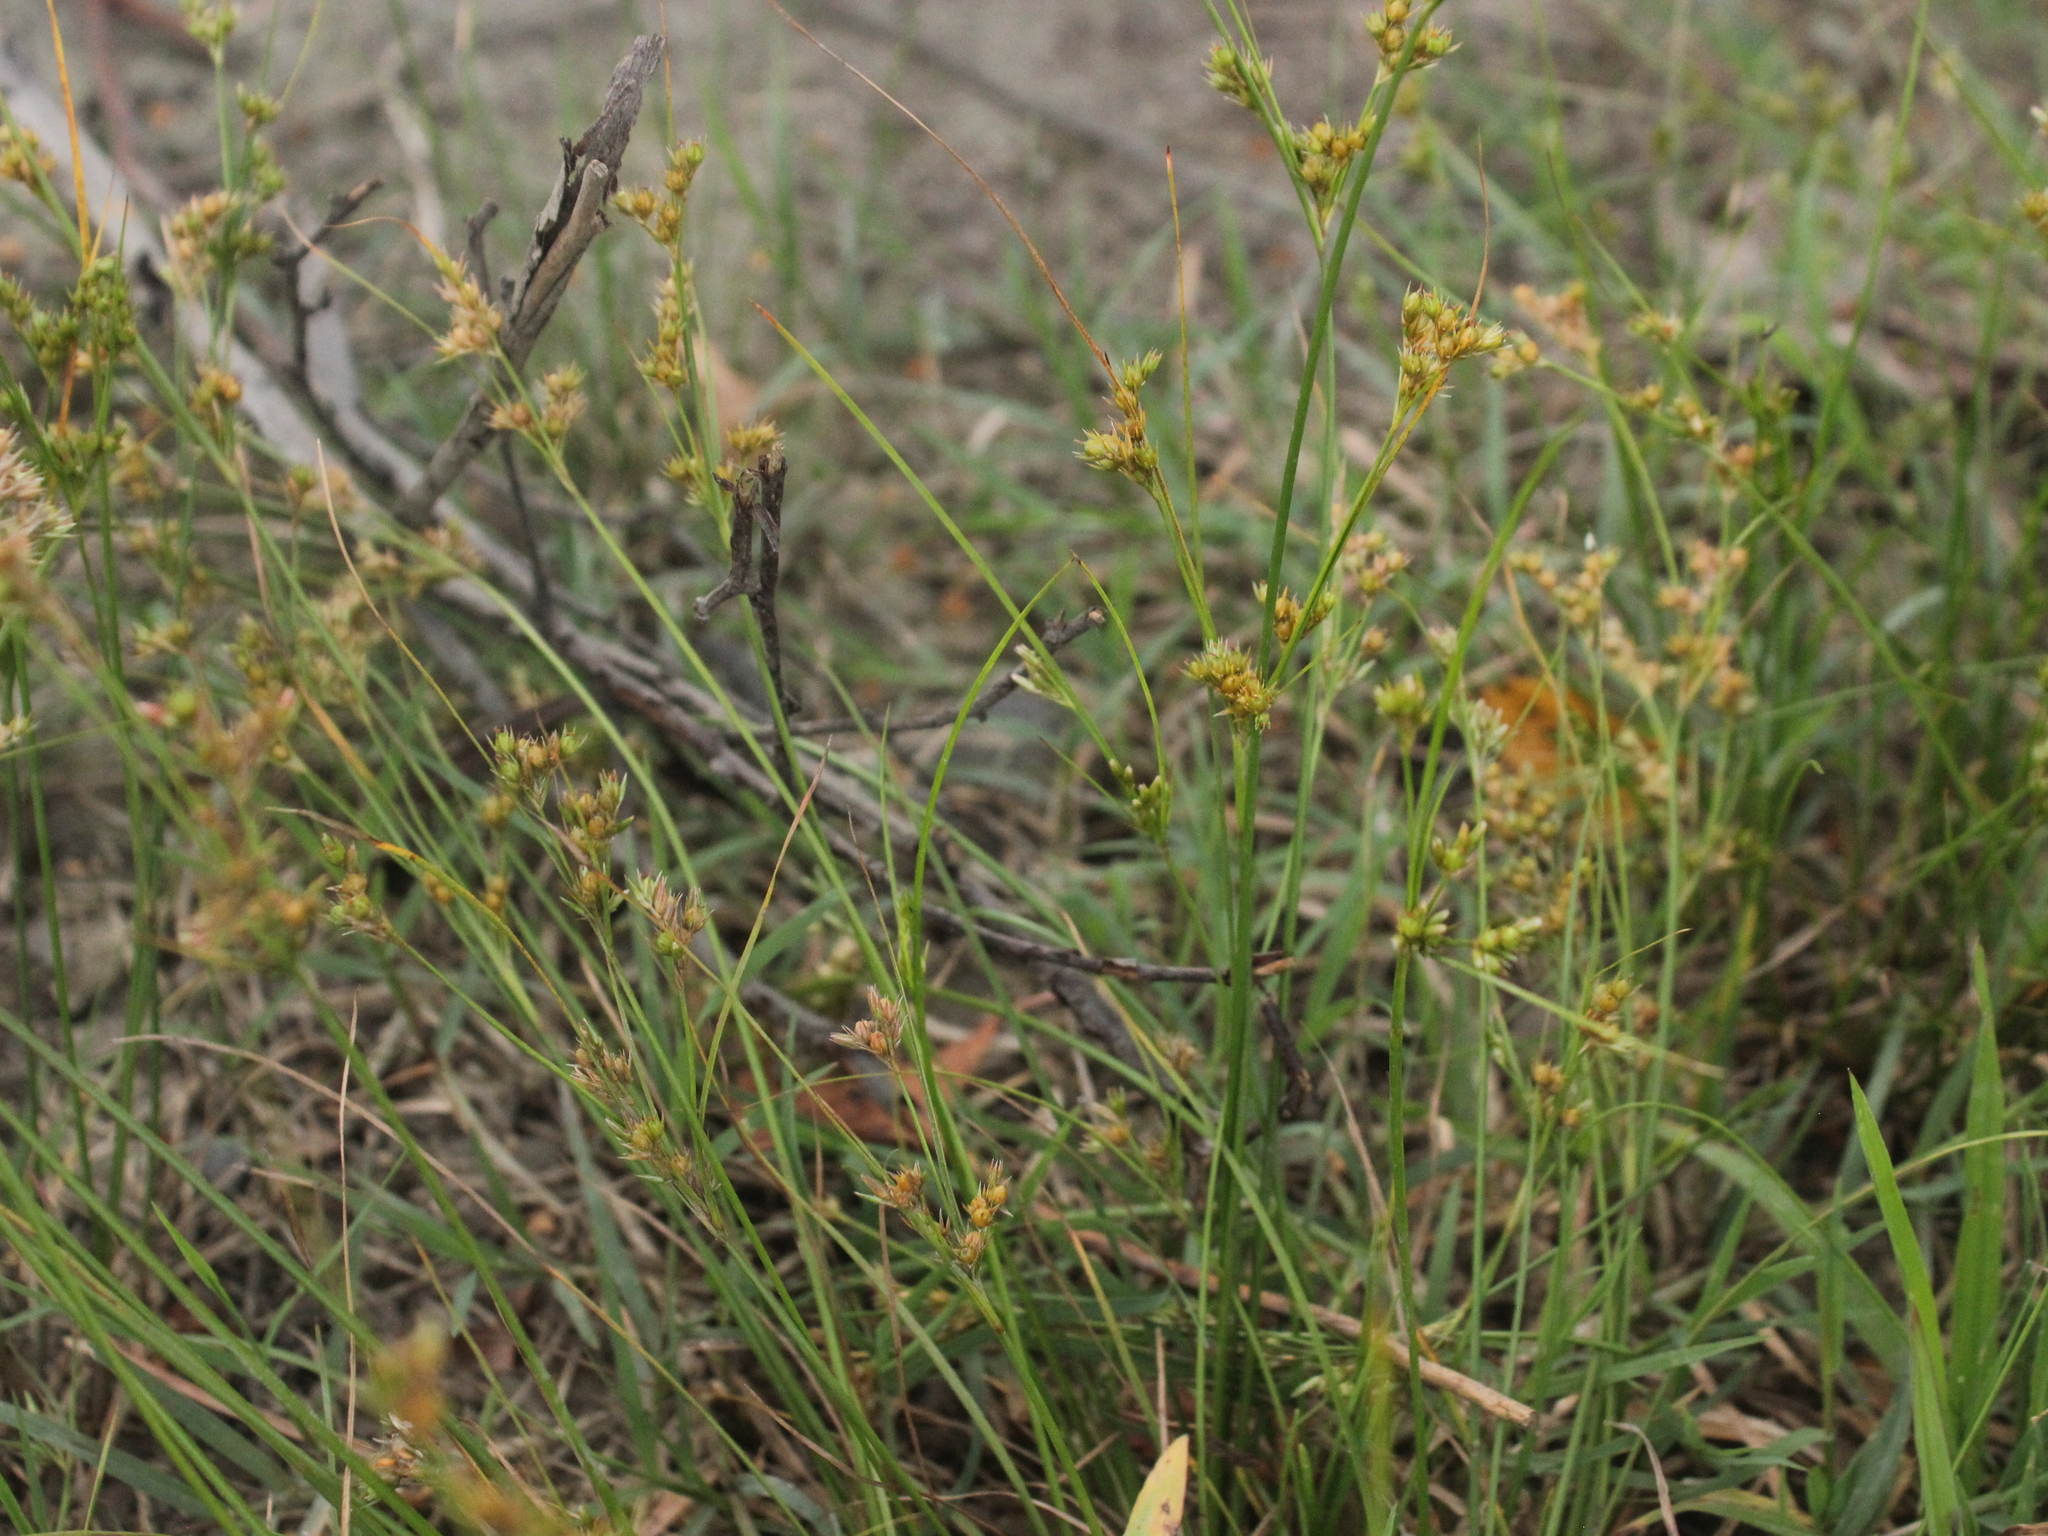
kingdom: Plantae
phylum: Tracheophyta
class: Liliopsida
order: Poales
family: Juncaceae
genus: Juncus
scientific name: Juncus tenuis
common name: Slender rush
